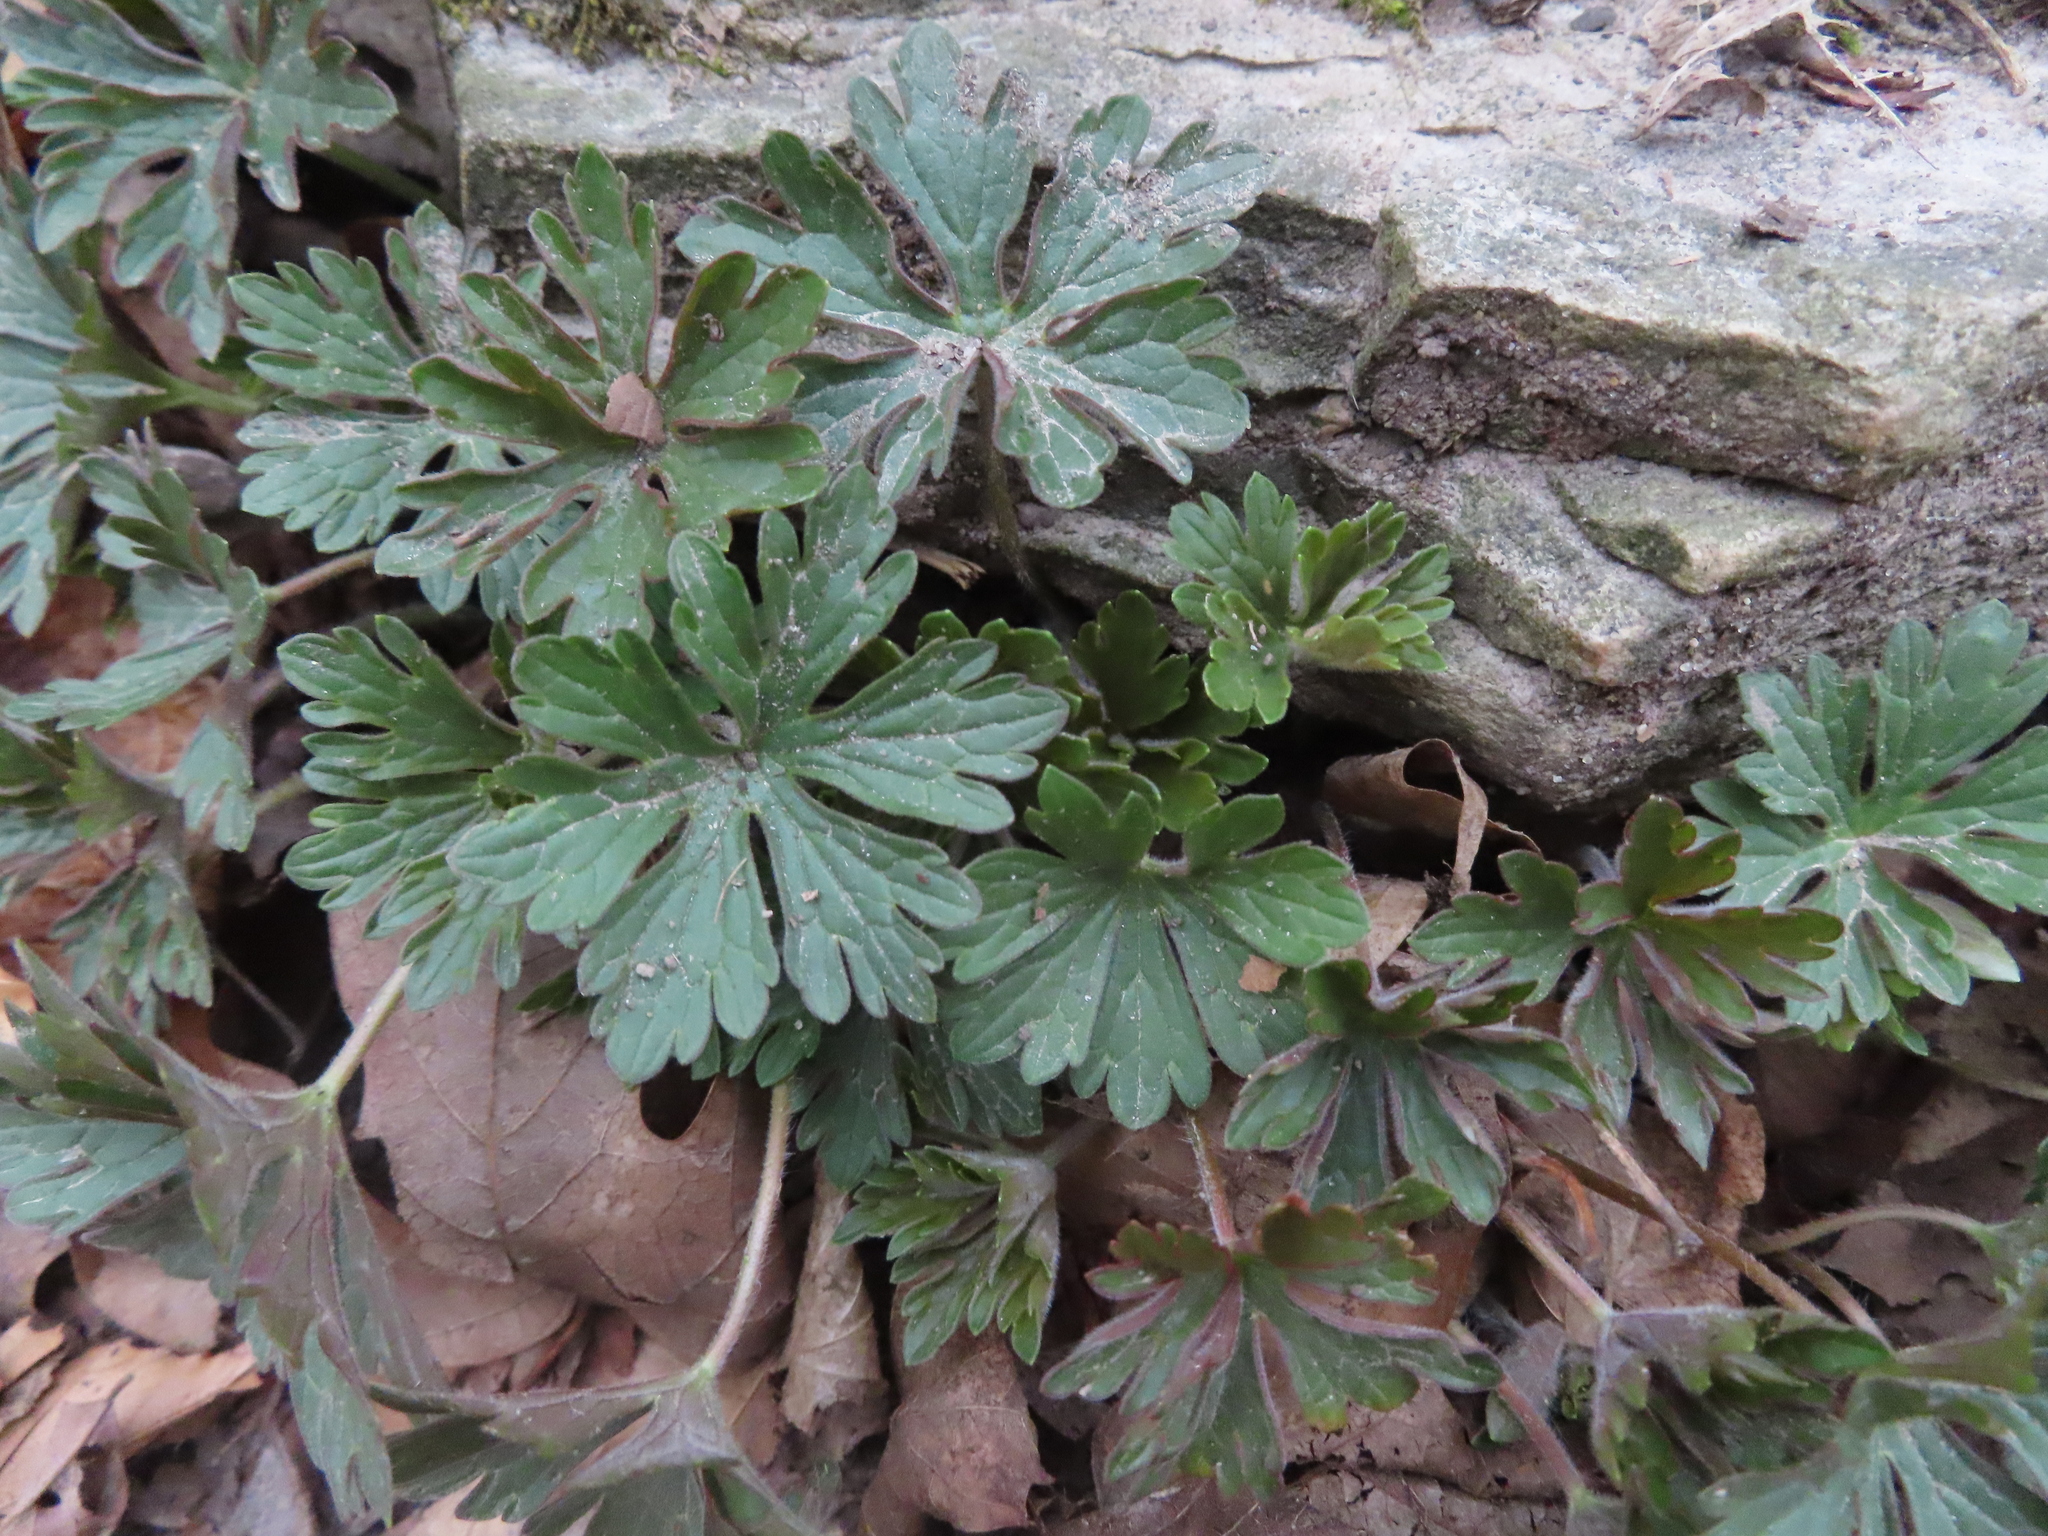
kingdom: Plantae
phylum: Tracheophyta
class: Magnoliopsida
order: Geraniales
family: Geraniaceae
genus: Geranium
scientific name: Geranium maculatum
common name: Spotted geranium
